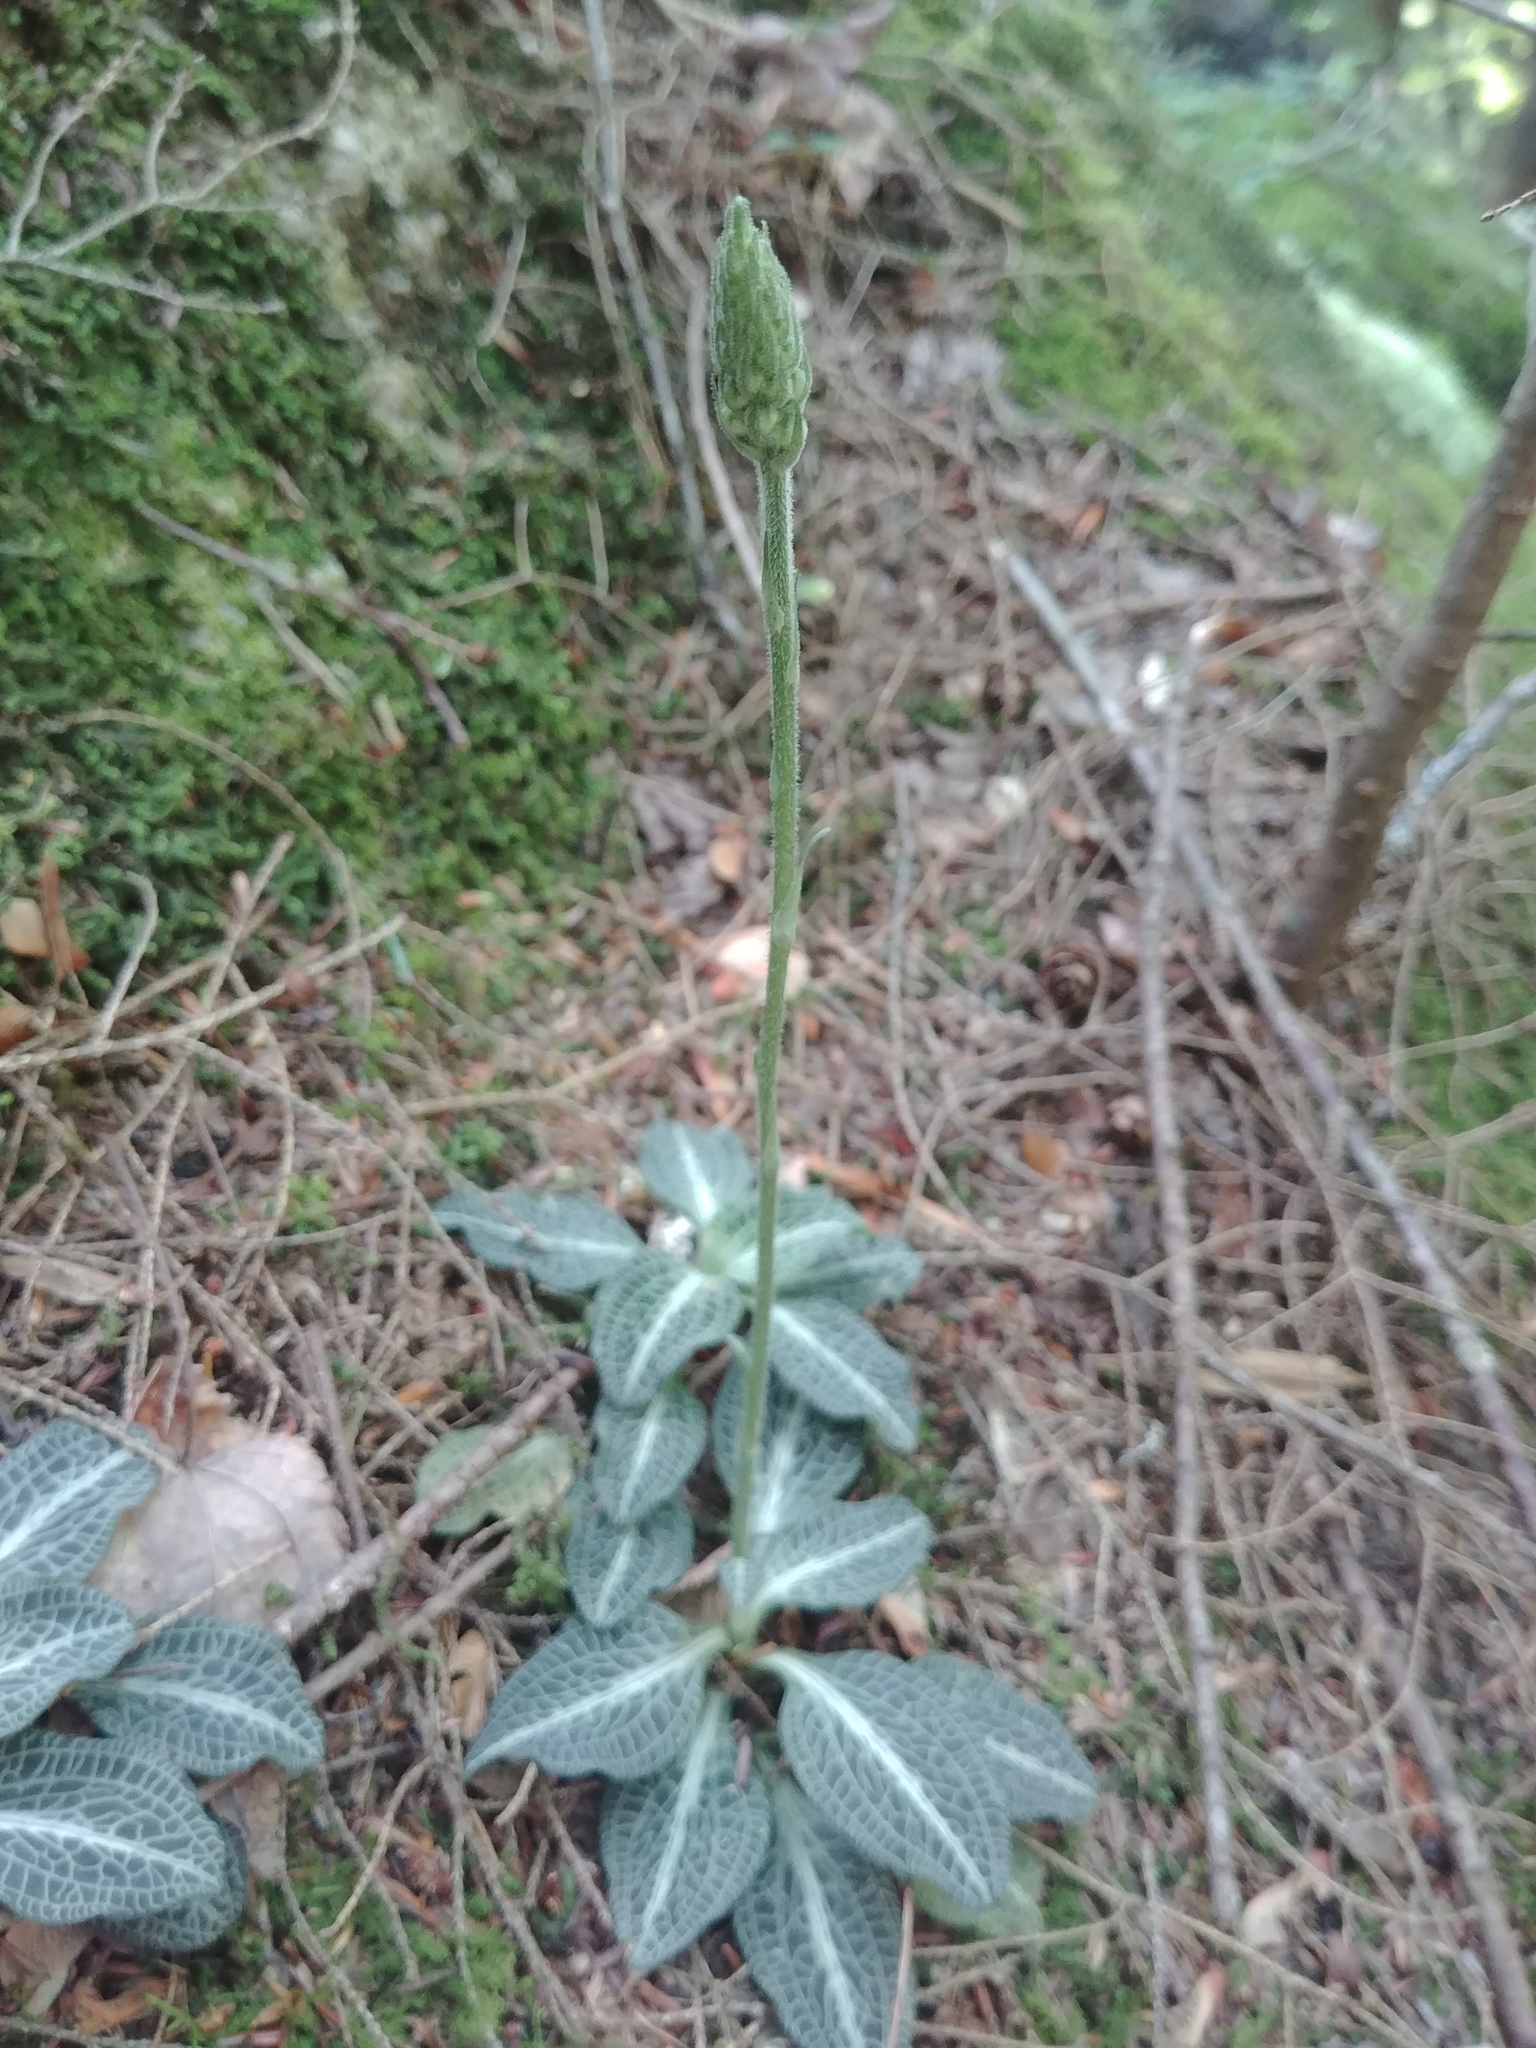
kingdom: Plantae
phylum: Tracheophyta
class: Liliopsida
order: Asparagales
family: Orchidaceae
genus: Goodyera
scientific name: Goodyera pubescens
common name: Downy rattlesnake-plantain
